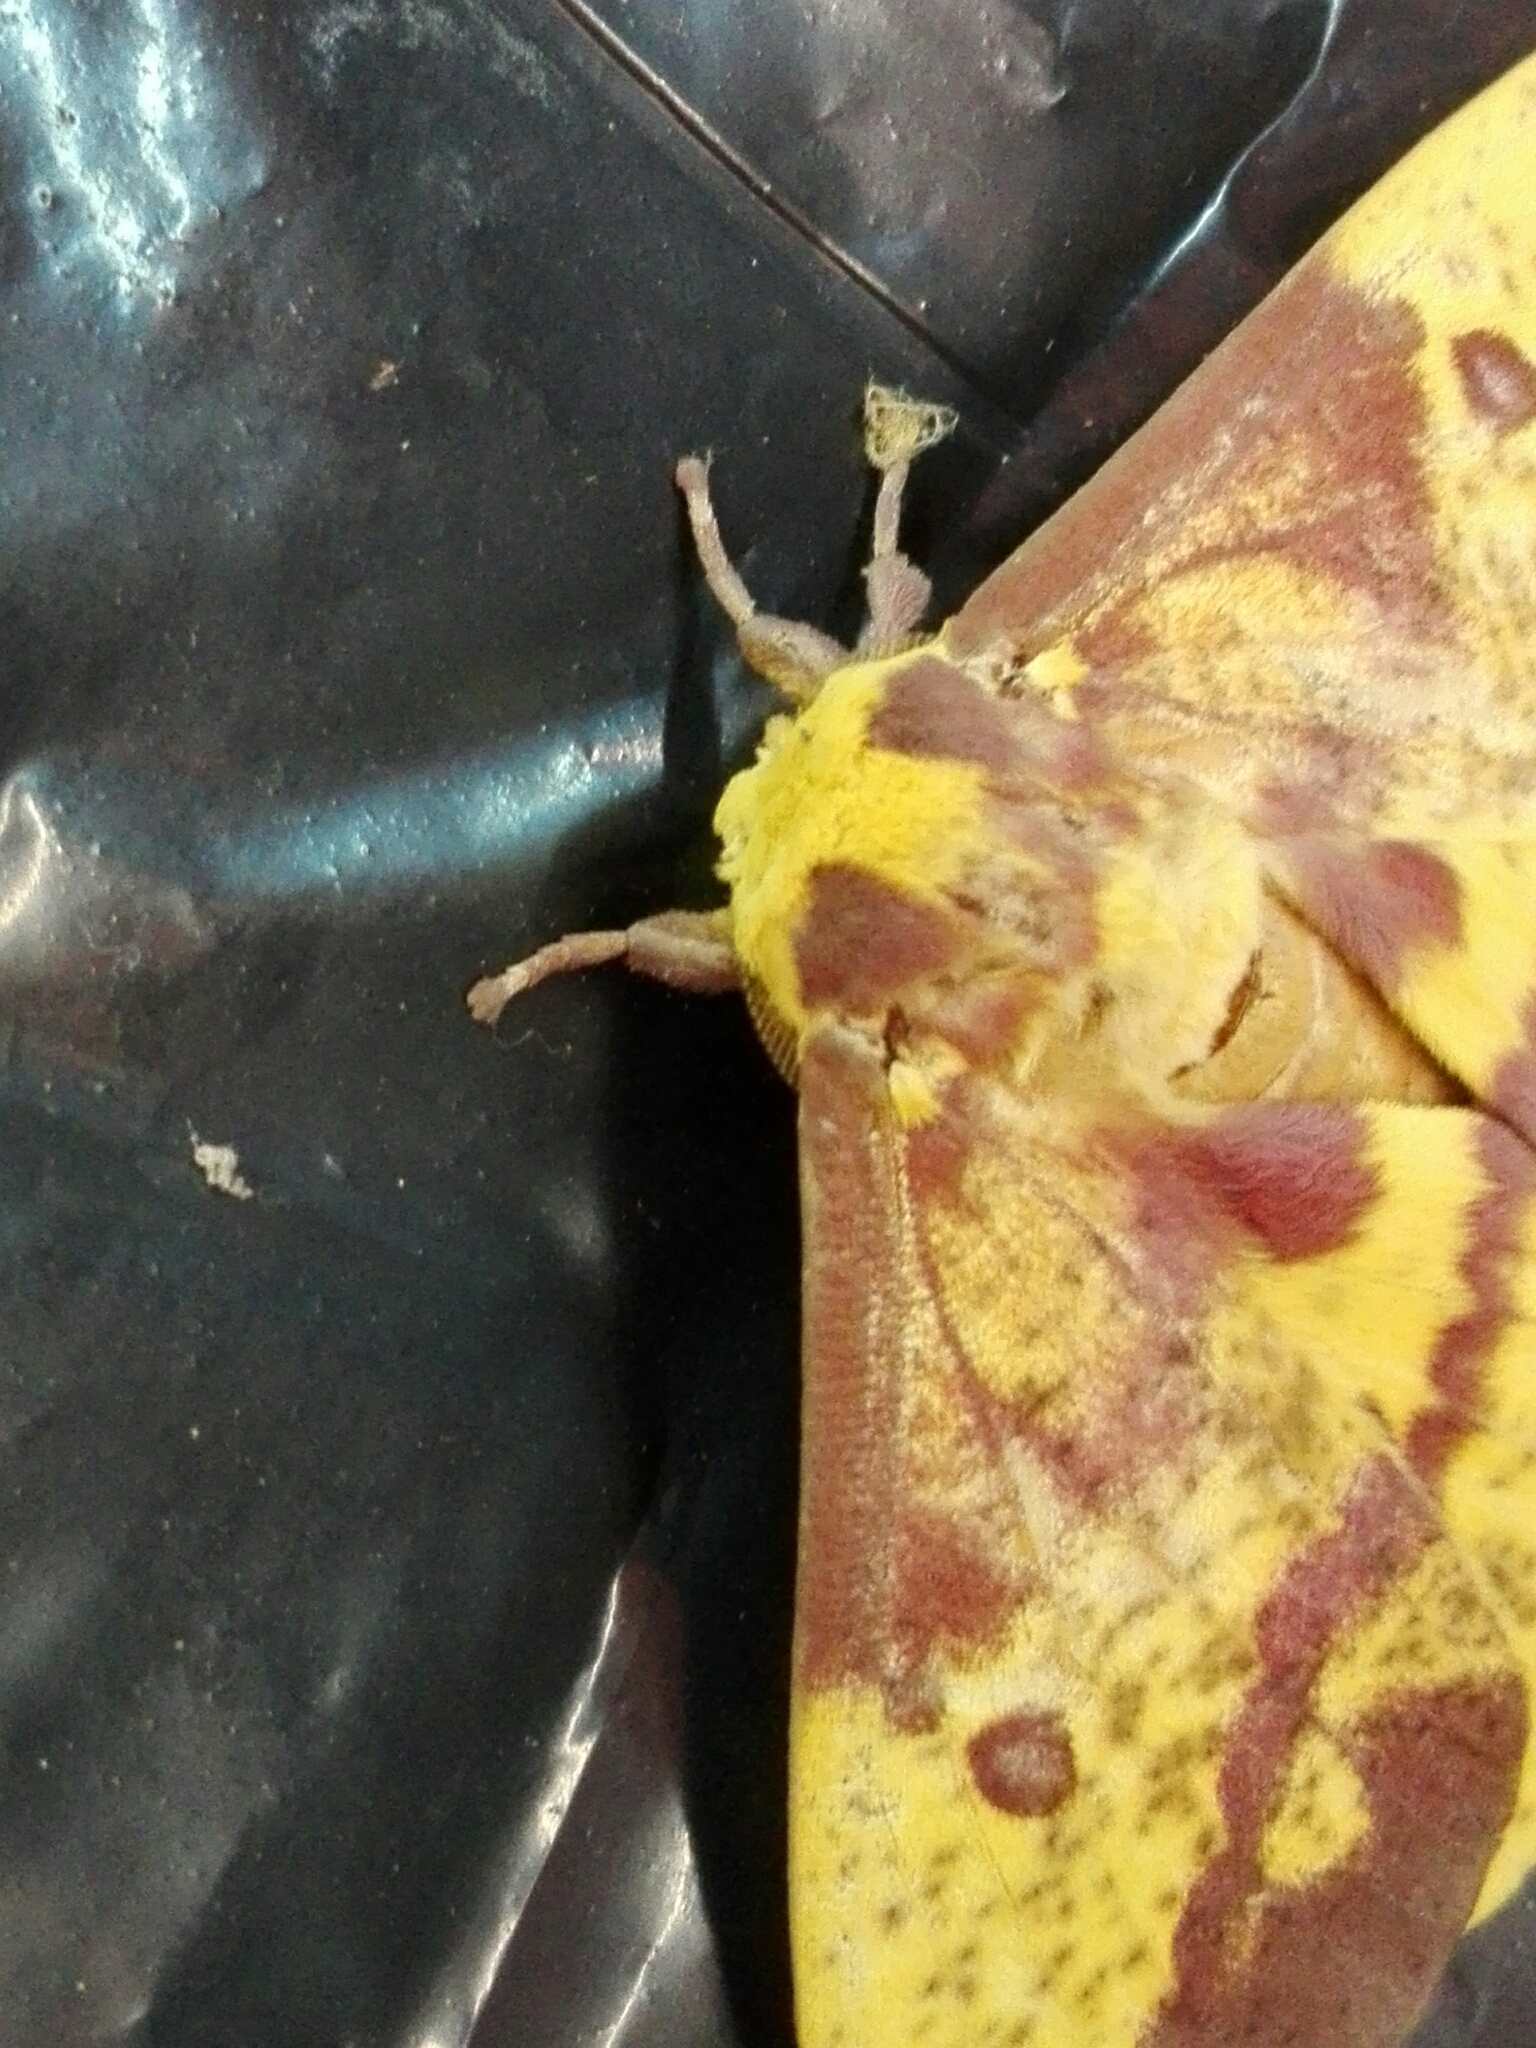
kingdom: Animalia
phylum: Arthropoda
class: Insecta
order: Lepidoptera
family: Saturniidae
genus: Eacles
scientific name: Eacles oslari
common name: Oslar's imperial moth
